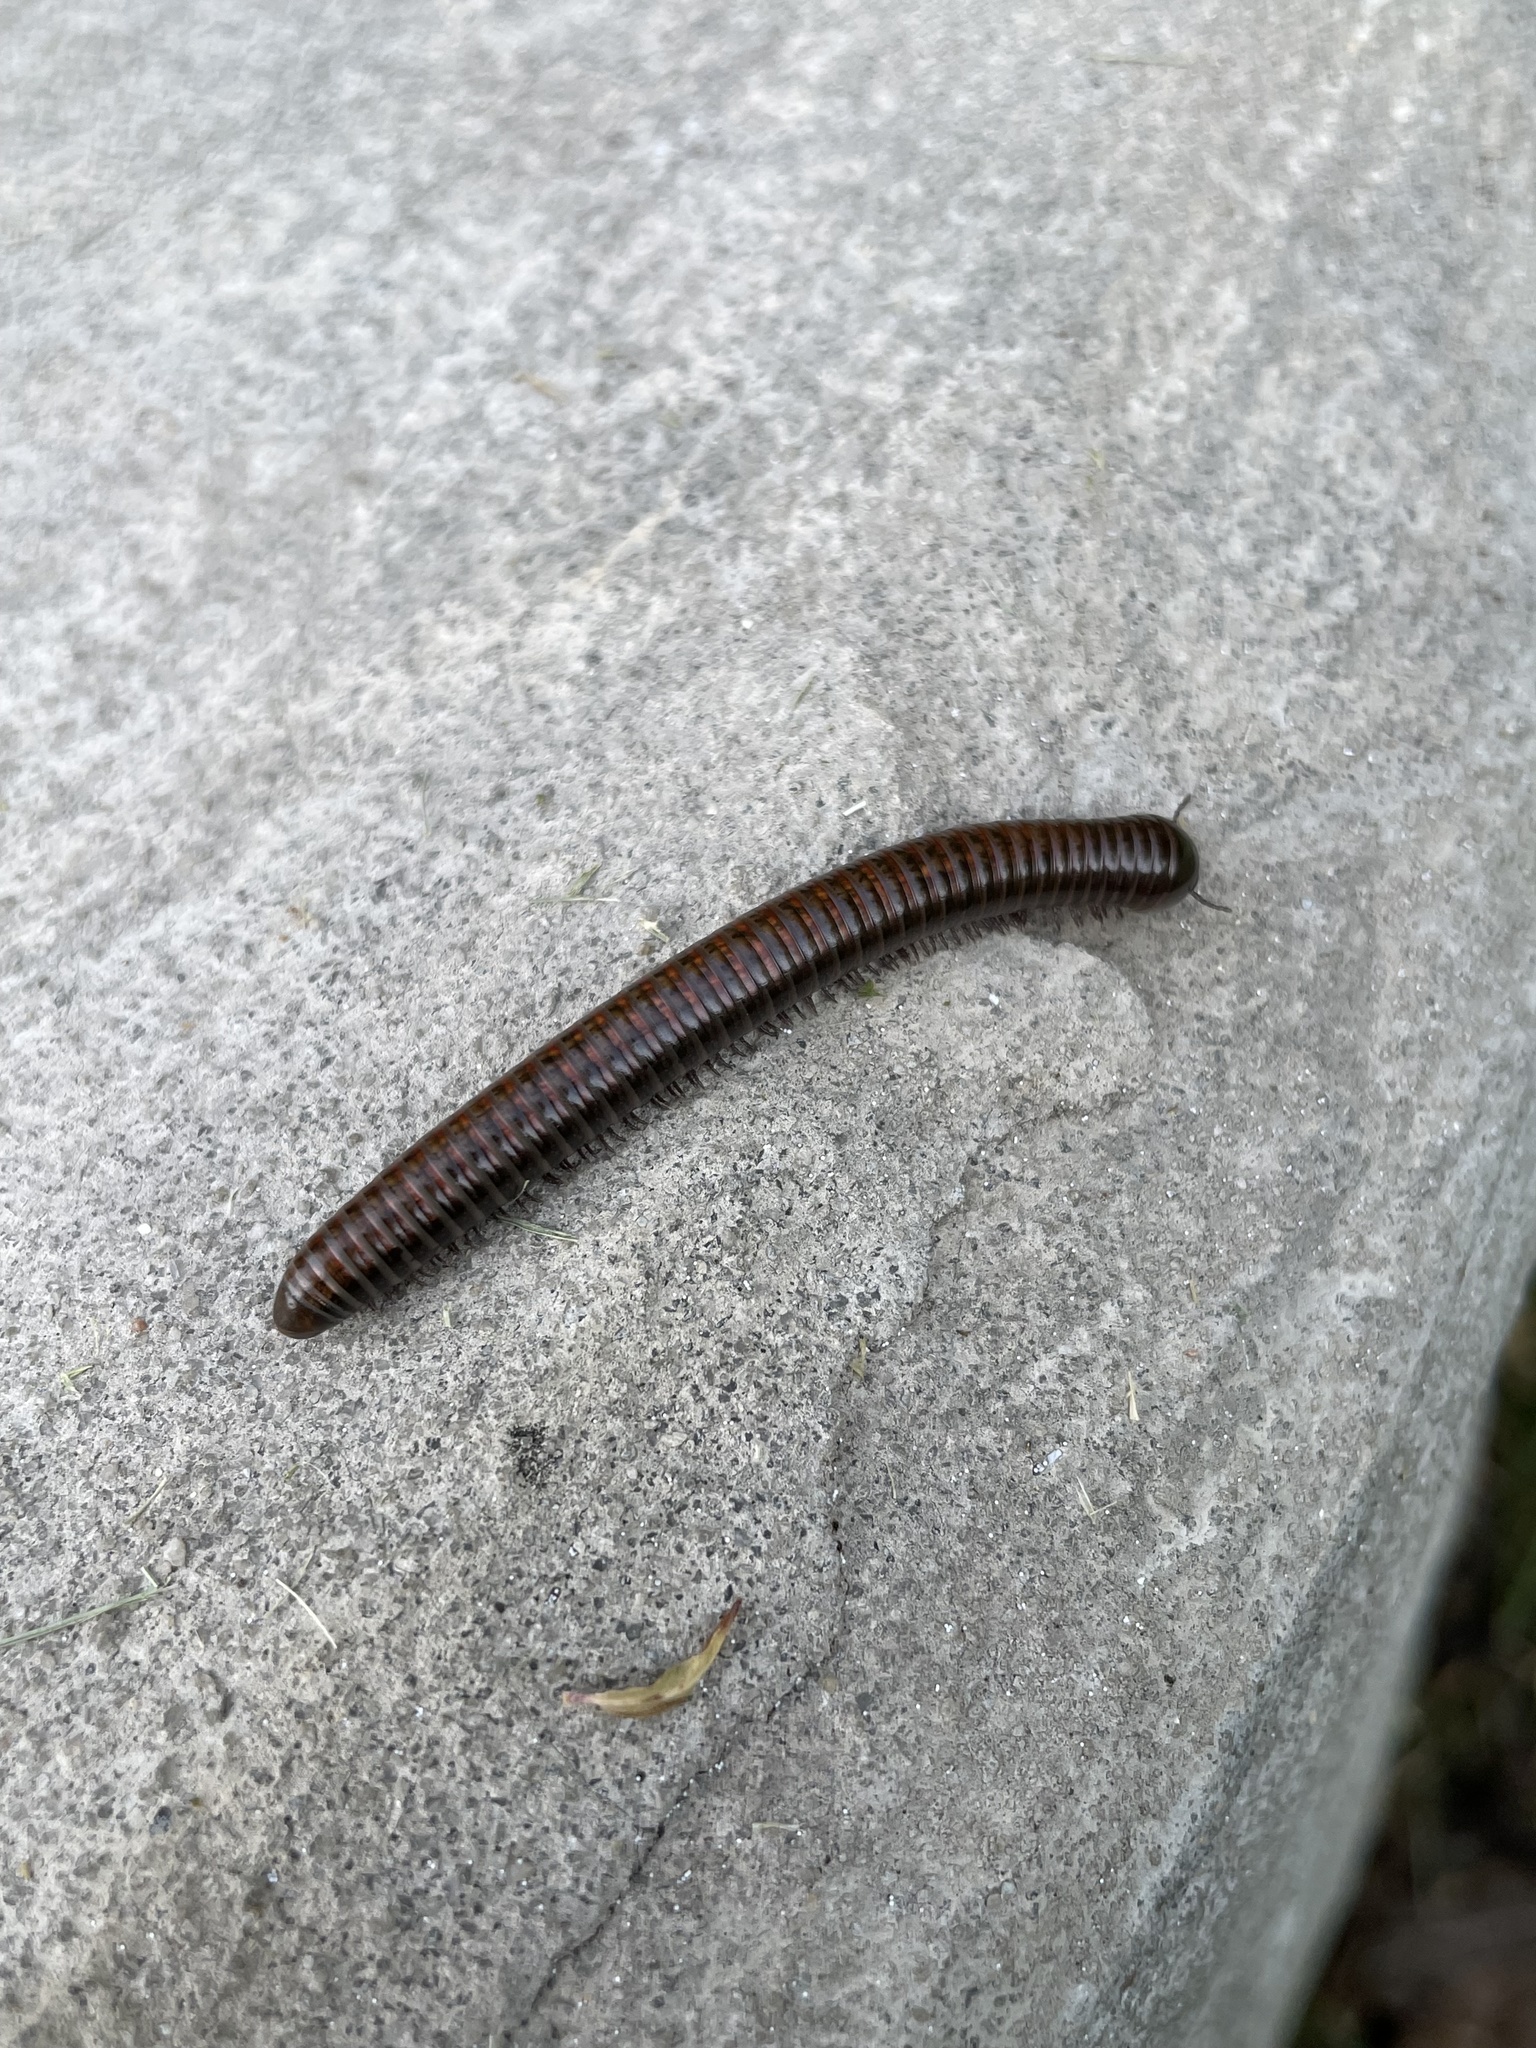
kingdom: Animalia
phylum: Arthropoda
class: Diplopoda
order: Spirostreptida
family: Choctellidae
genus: Choctella
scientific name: Choctella cumminsi
